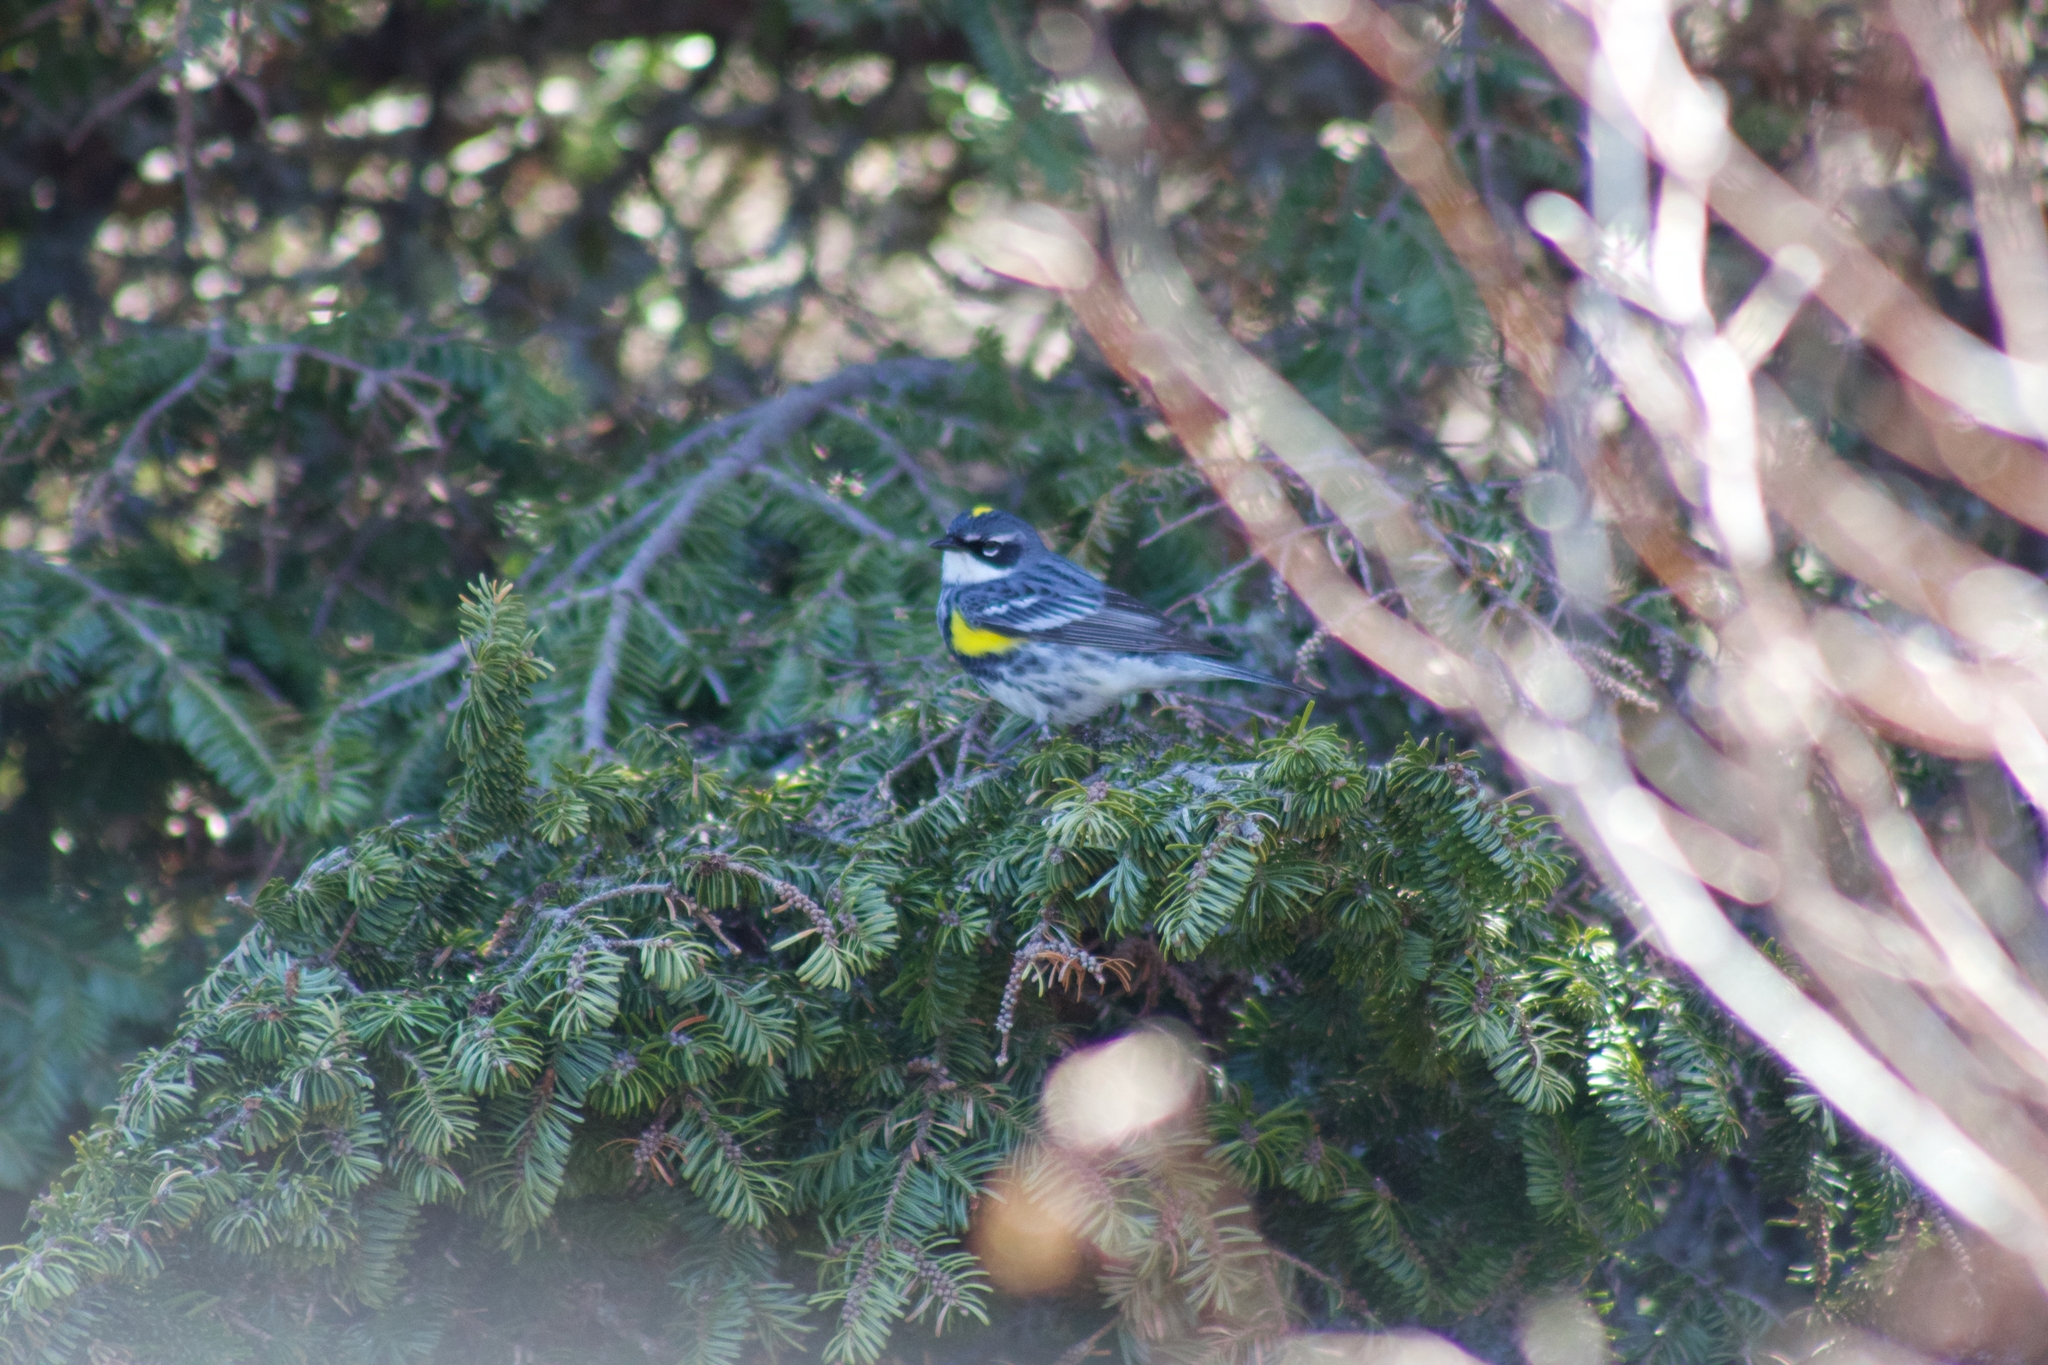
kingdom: Animalia
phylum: Chordata
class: Aves
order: Passeriformes
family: Parulidae
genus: Setophaga
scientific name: Setophaga coronata
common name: Myrtle warbler
